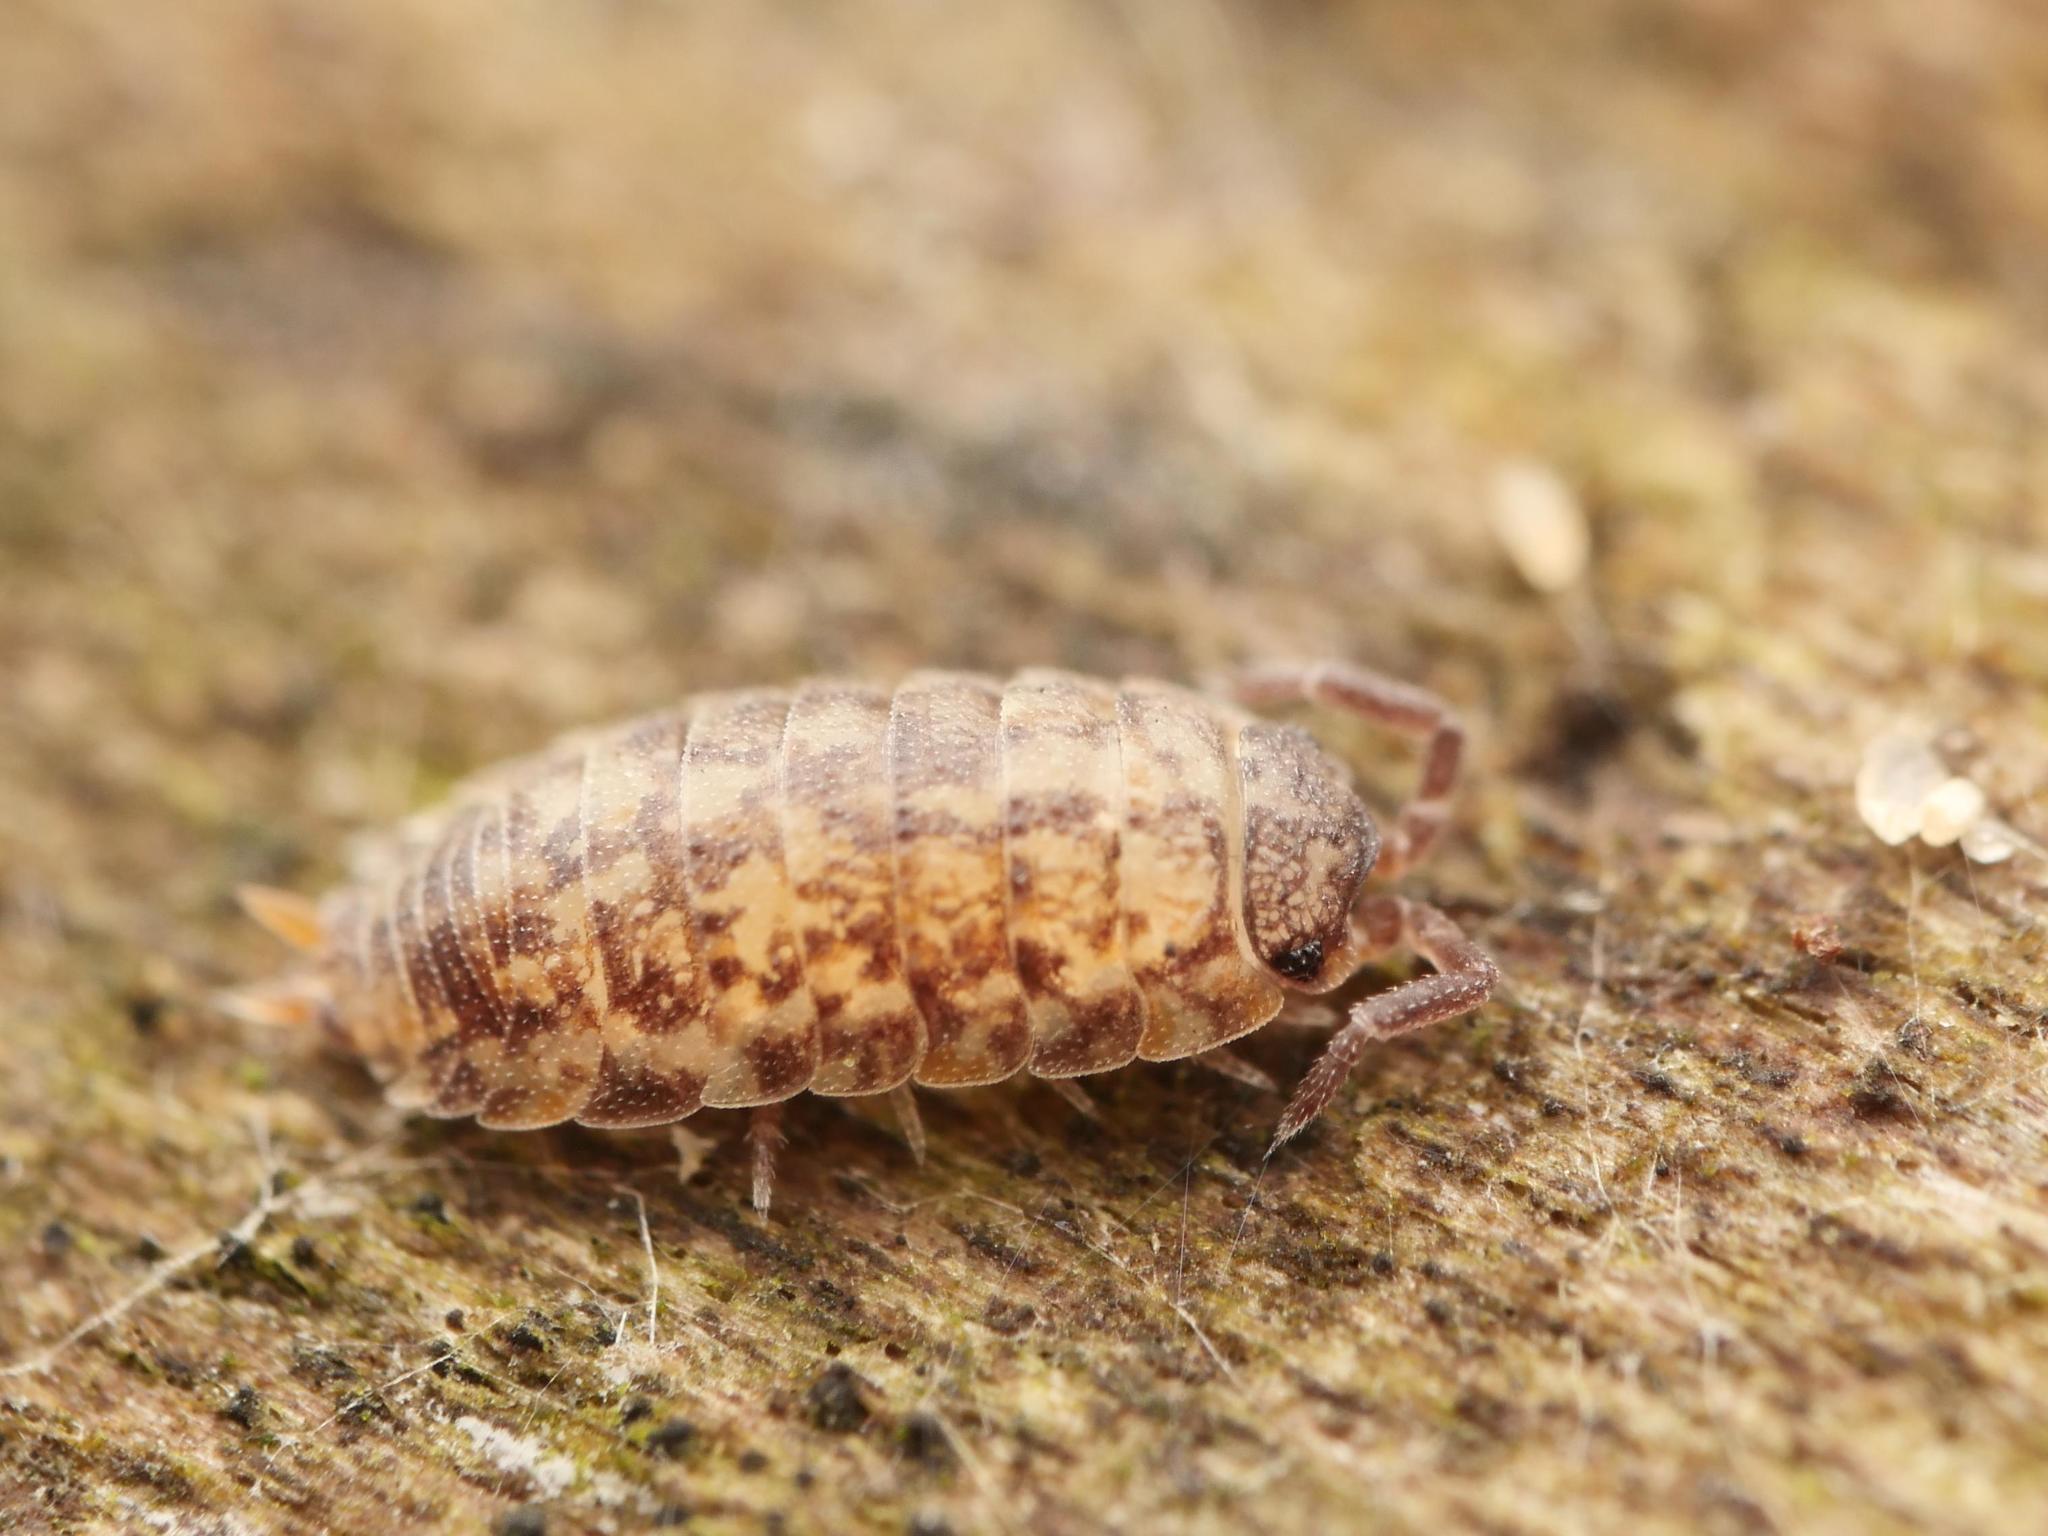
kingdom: Animalia
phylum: Arthropoda
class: Malacostraca
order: Isopoda
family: Porcellionidae
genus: Porcellio
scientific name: Porcellio scaber
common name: Common rough woodlouse
